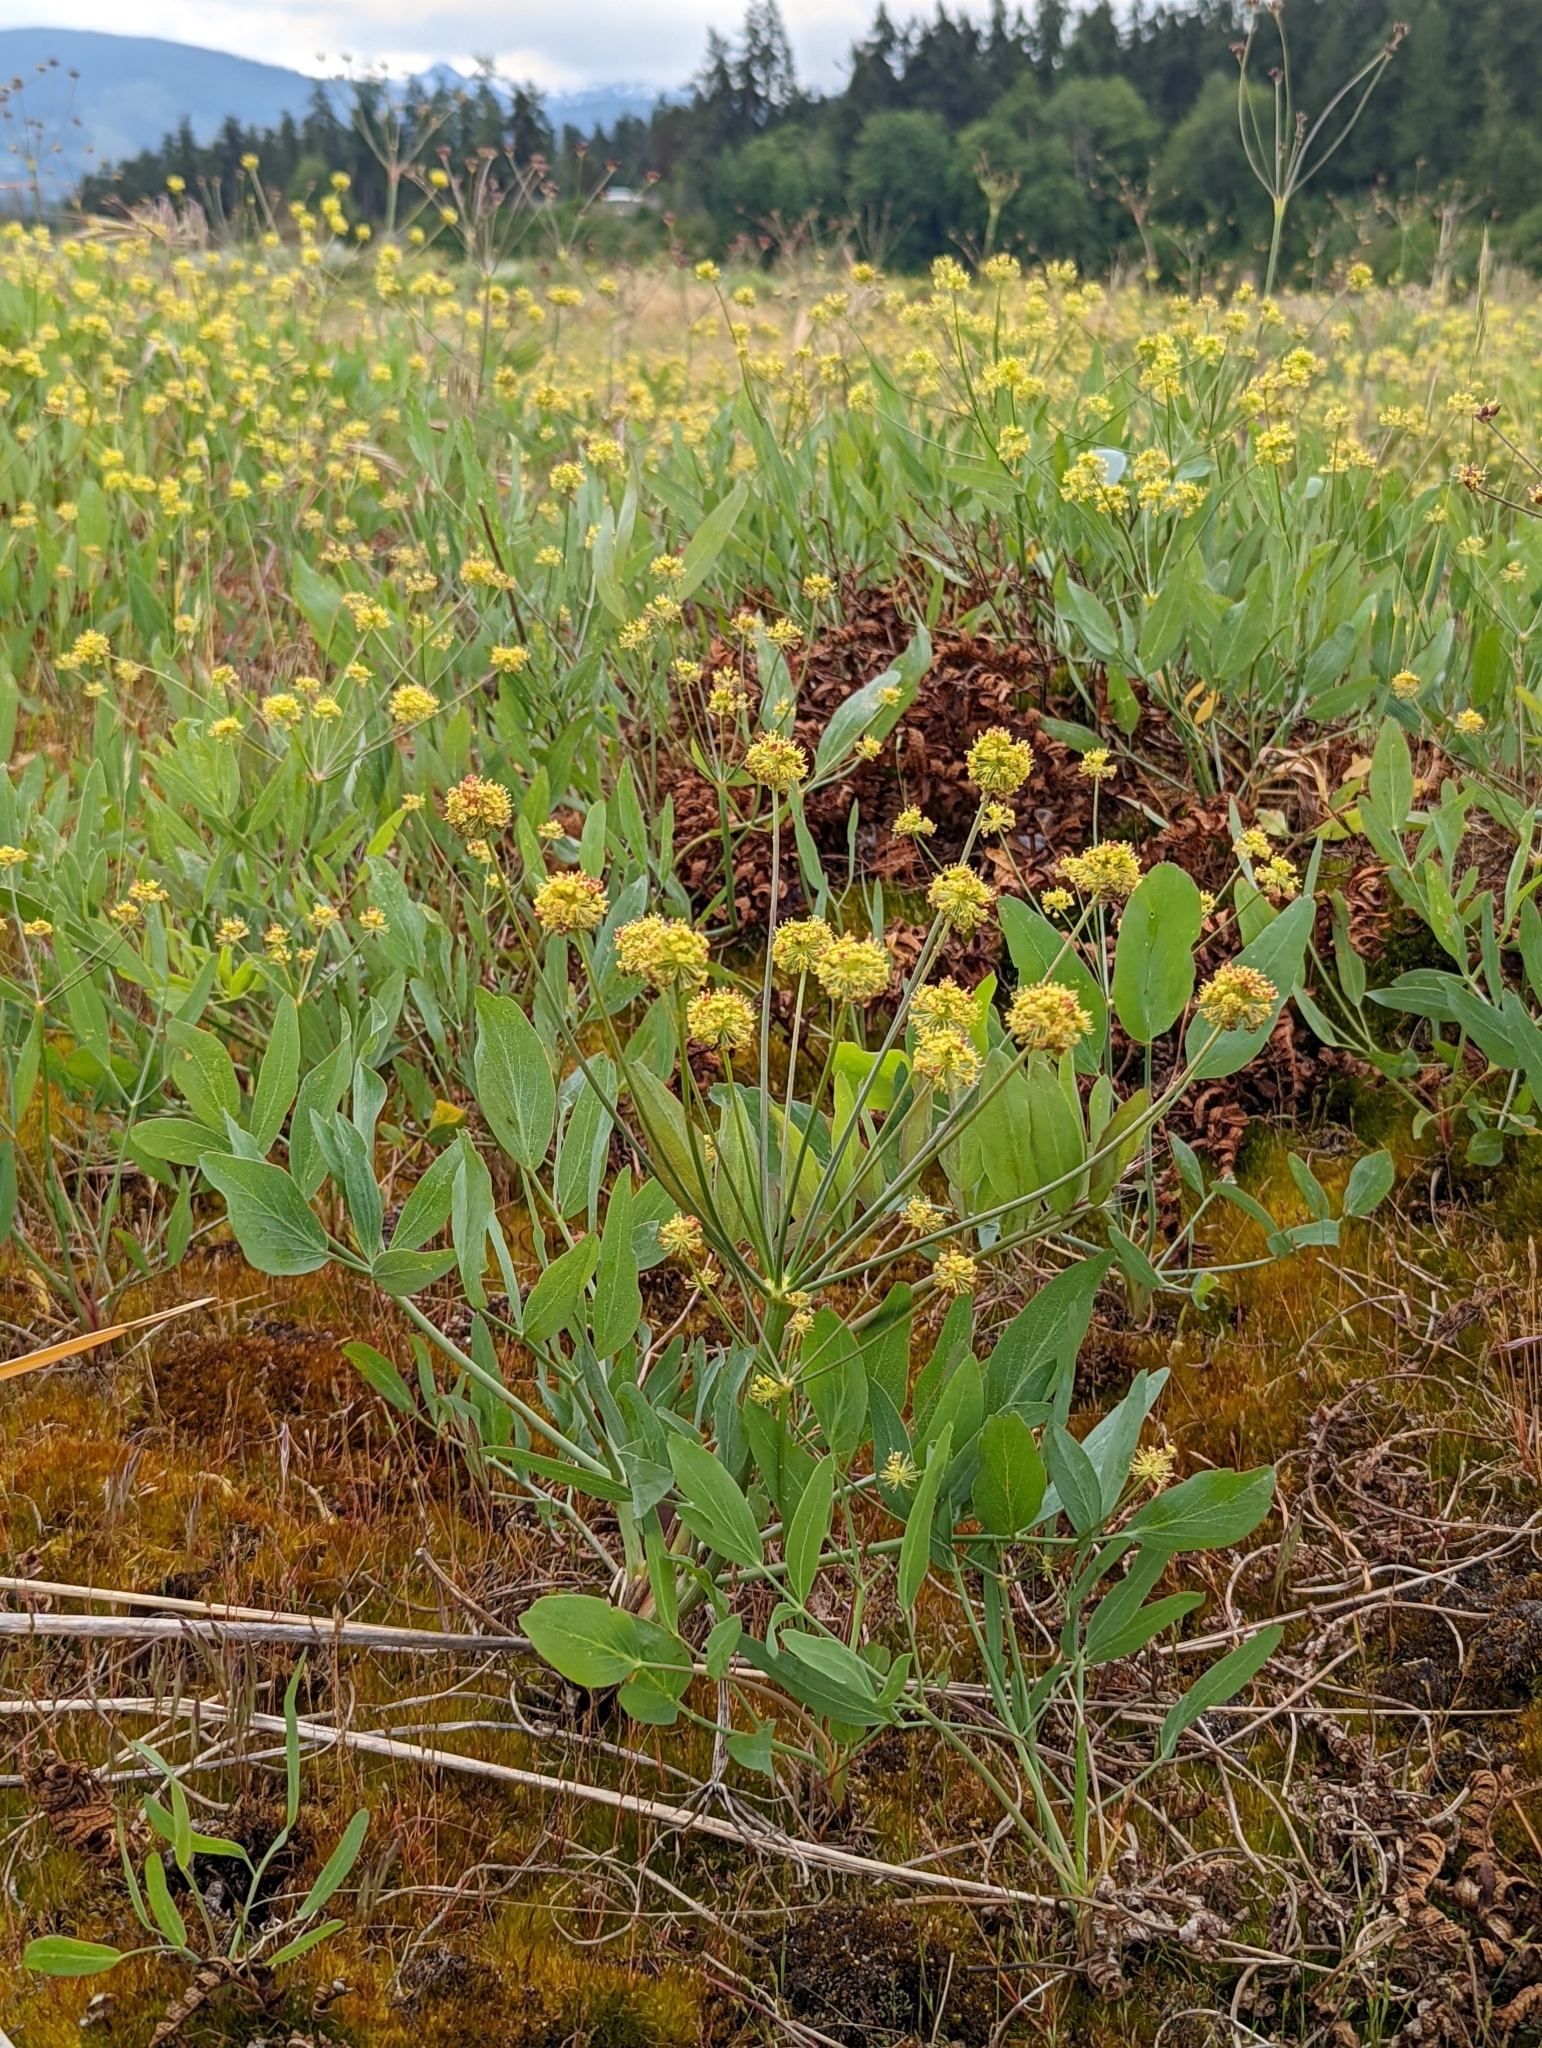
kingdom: Plantae
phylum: Tracheophyta
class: Magnoliopsida
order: Apiales
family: Apiaceae
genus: Lomatium
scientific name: Lomatium nudicaule
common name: Pestle lomatium
